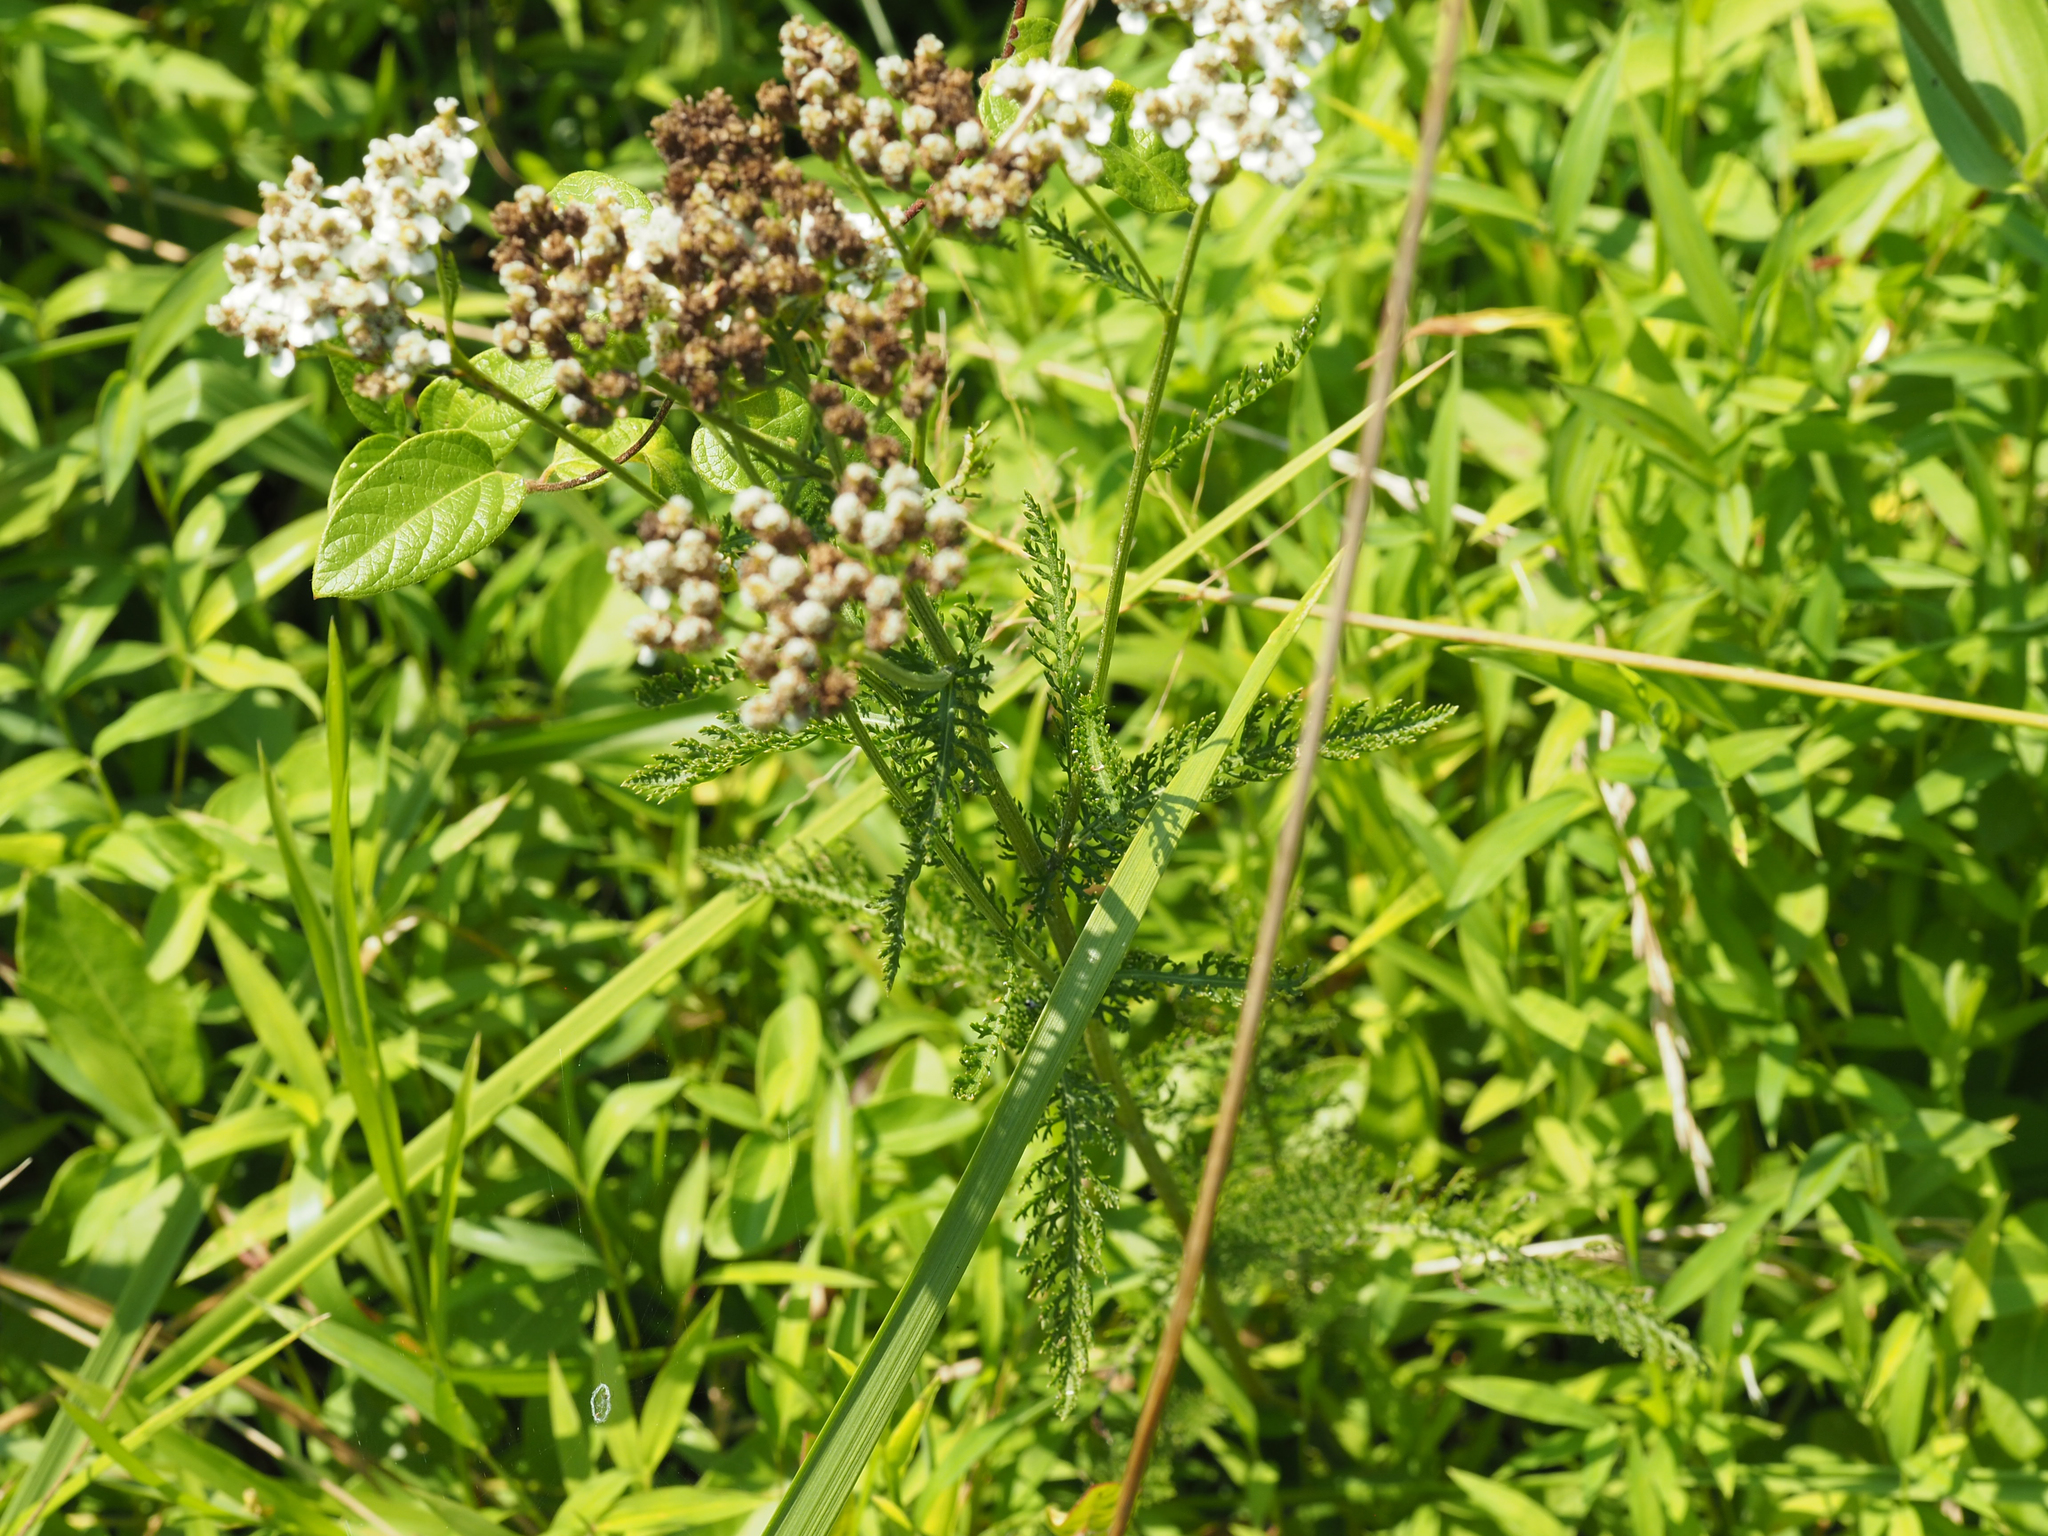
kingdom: Plantae
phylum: Tracheophyta
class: Magnoliopsida
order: Asterales
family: Asteraceae
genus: Achillea
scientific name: Achillea millefolium
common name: Yarrow
